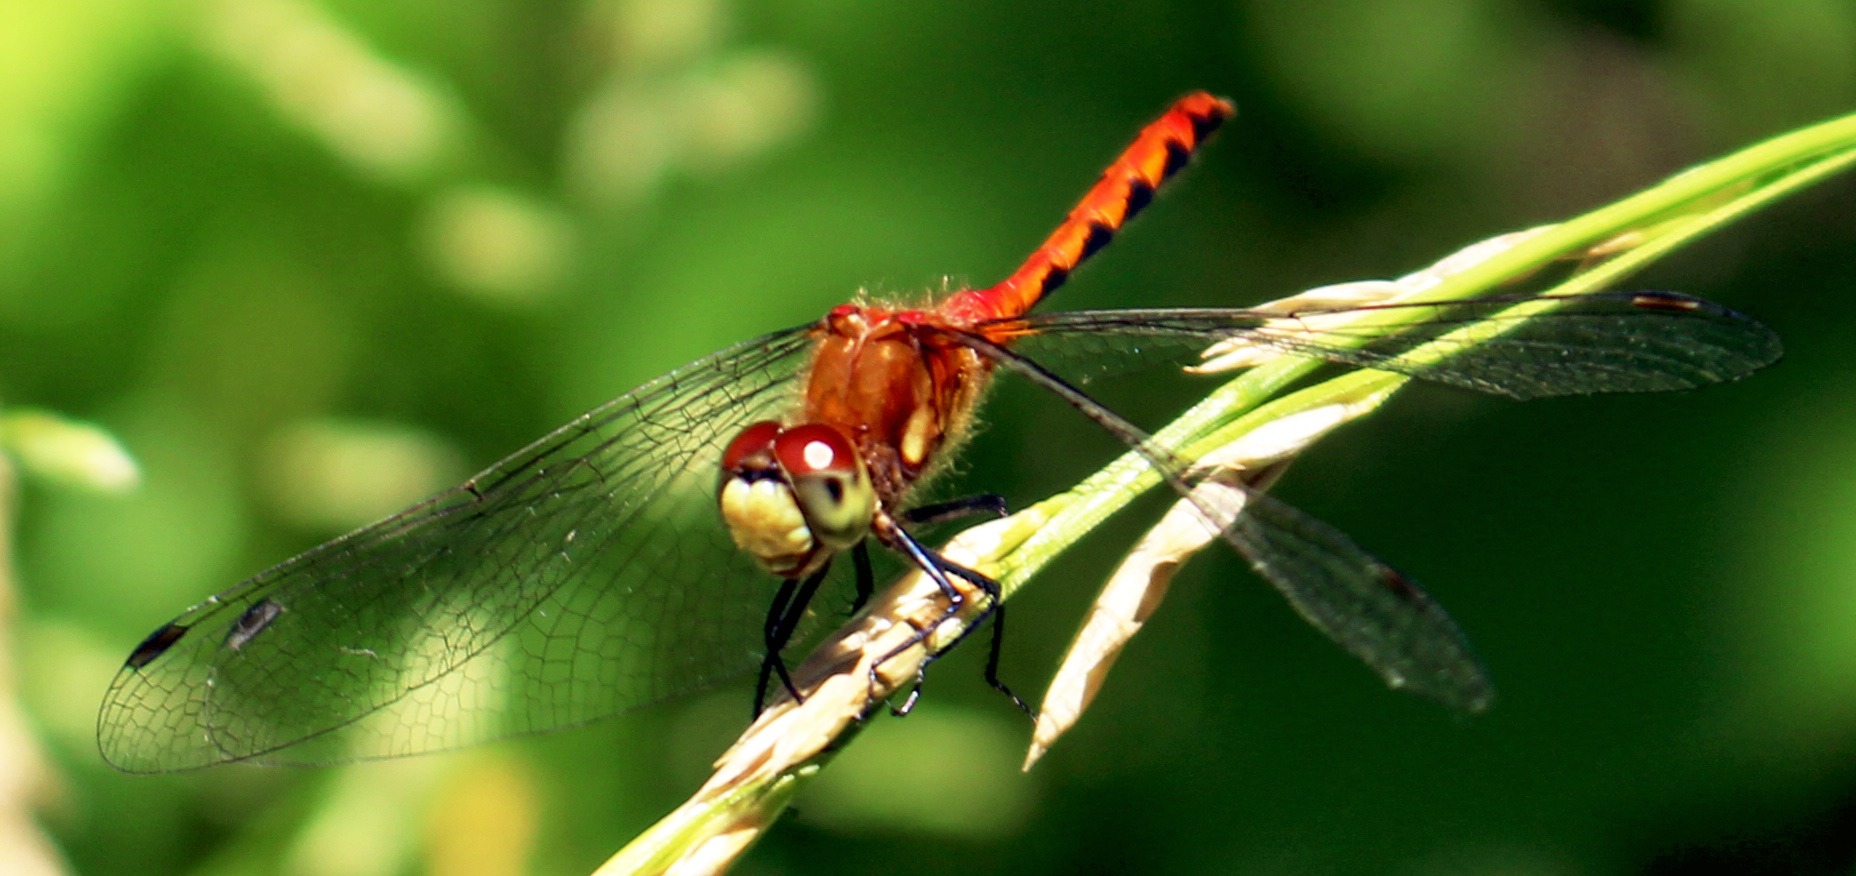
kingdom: Animalia
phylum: Arthropoda
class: Insecta
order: Odonata
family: Libellulidae
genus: Sympetrum
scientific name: Sympetrum obtrusum
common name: White-faced meadowhawk
